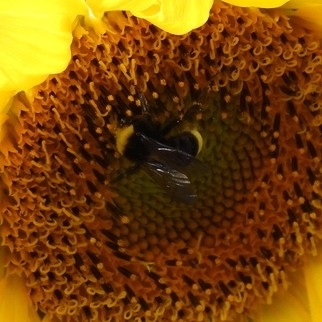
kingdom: Animalia
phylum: Arthropoda
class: Insecta
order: Hymenoptera
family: Apidae
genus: Bombus
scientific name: Bombus vosnesenskii
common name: Vosnesensky bumble bee
